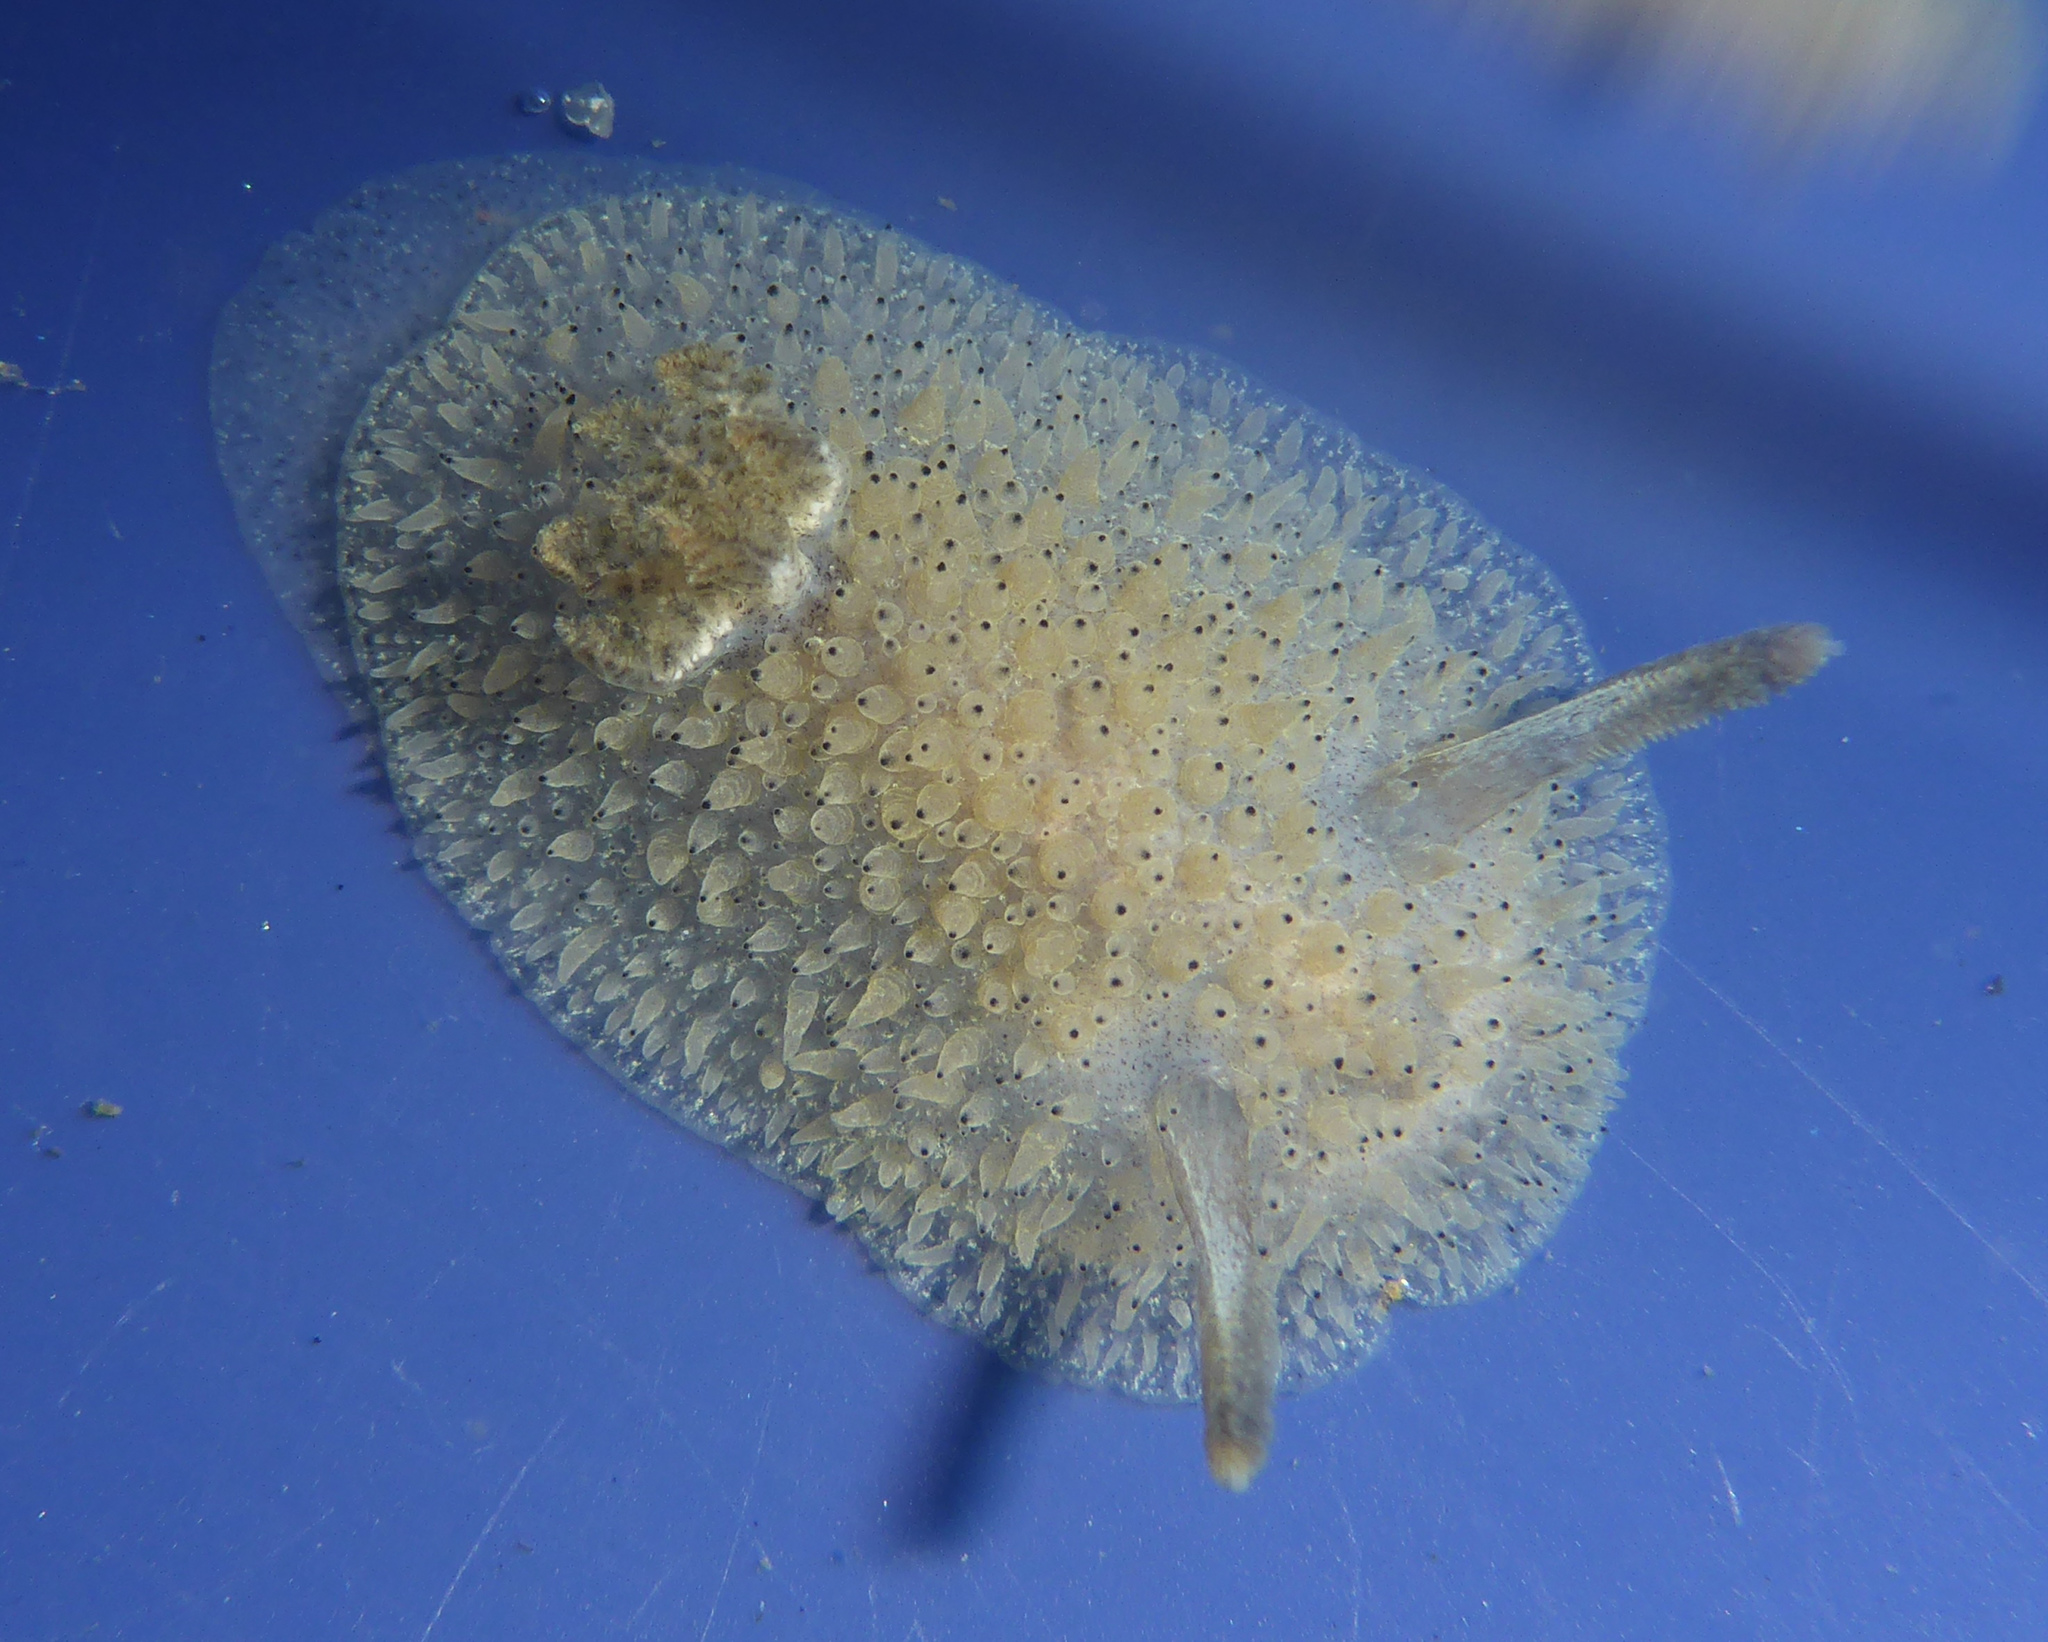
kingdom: Animalia
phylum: Mollusca
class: Gastropoda
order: Nudibranchia
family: Onchidorididae
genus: Acanthodoris
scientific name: Acanthodoris rhodoceras
